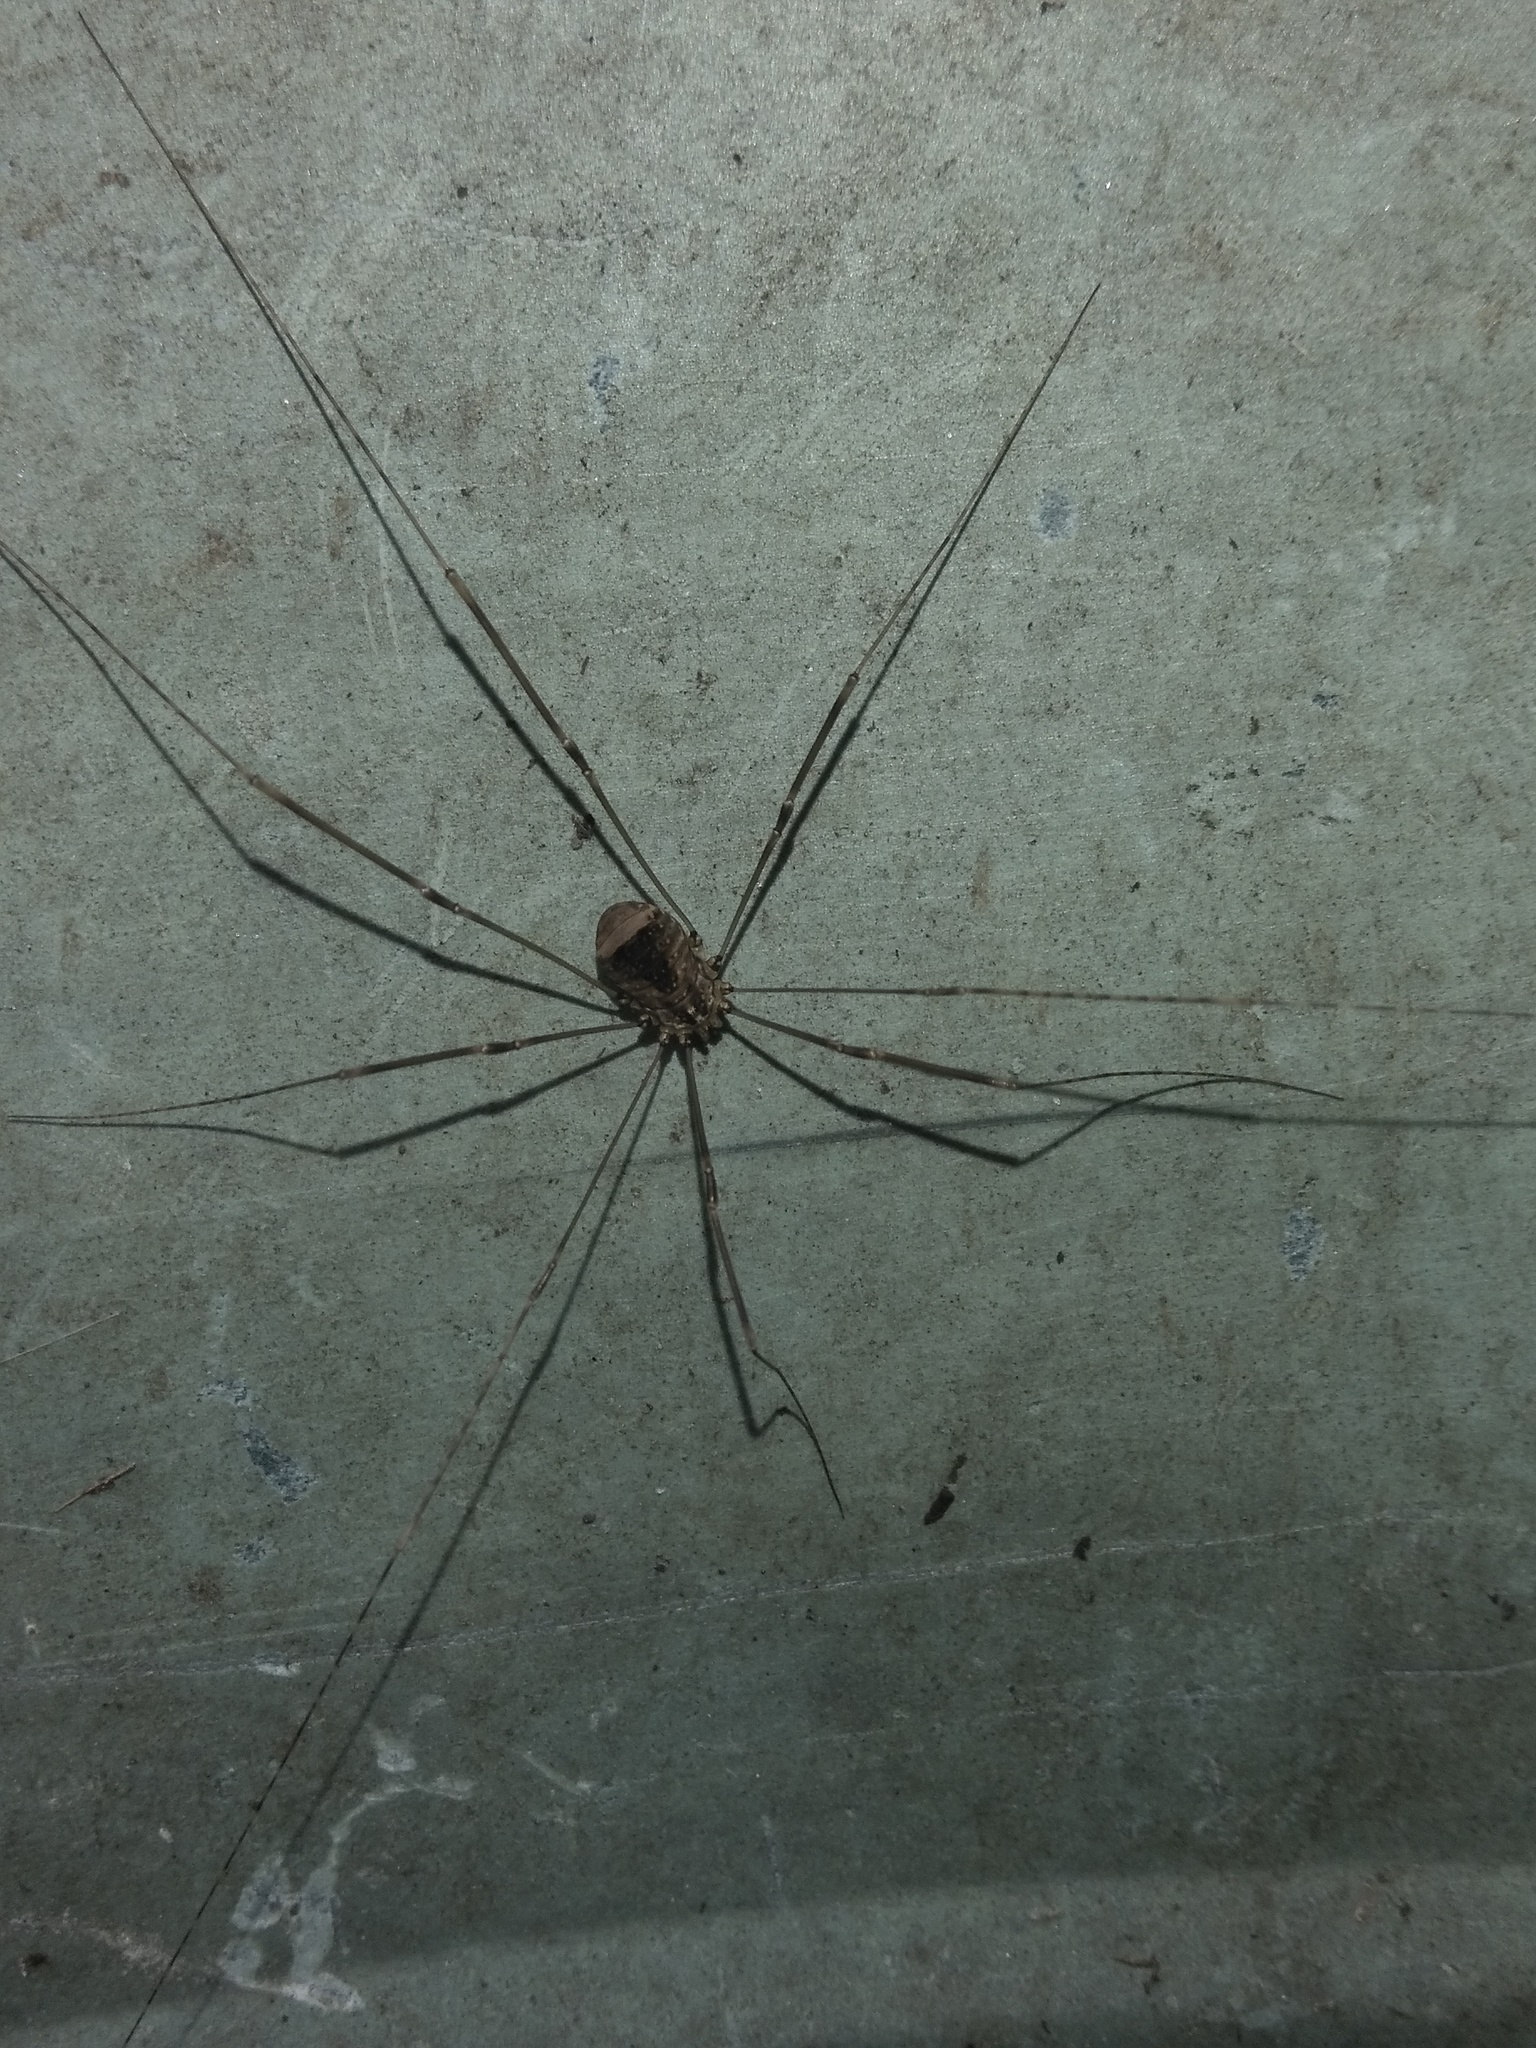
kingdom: Animalia
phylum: Arthropoda
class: Arachnida
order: Opiliones
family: Sclerosomatidae
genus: Leiobunum
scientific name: Leiobunum blackwalli
